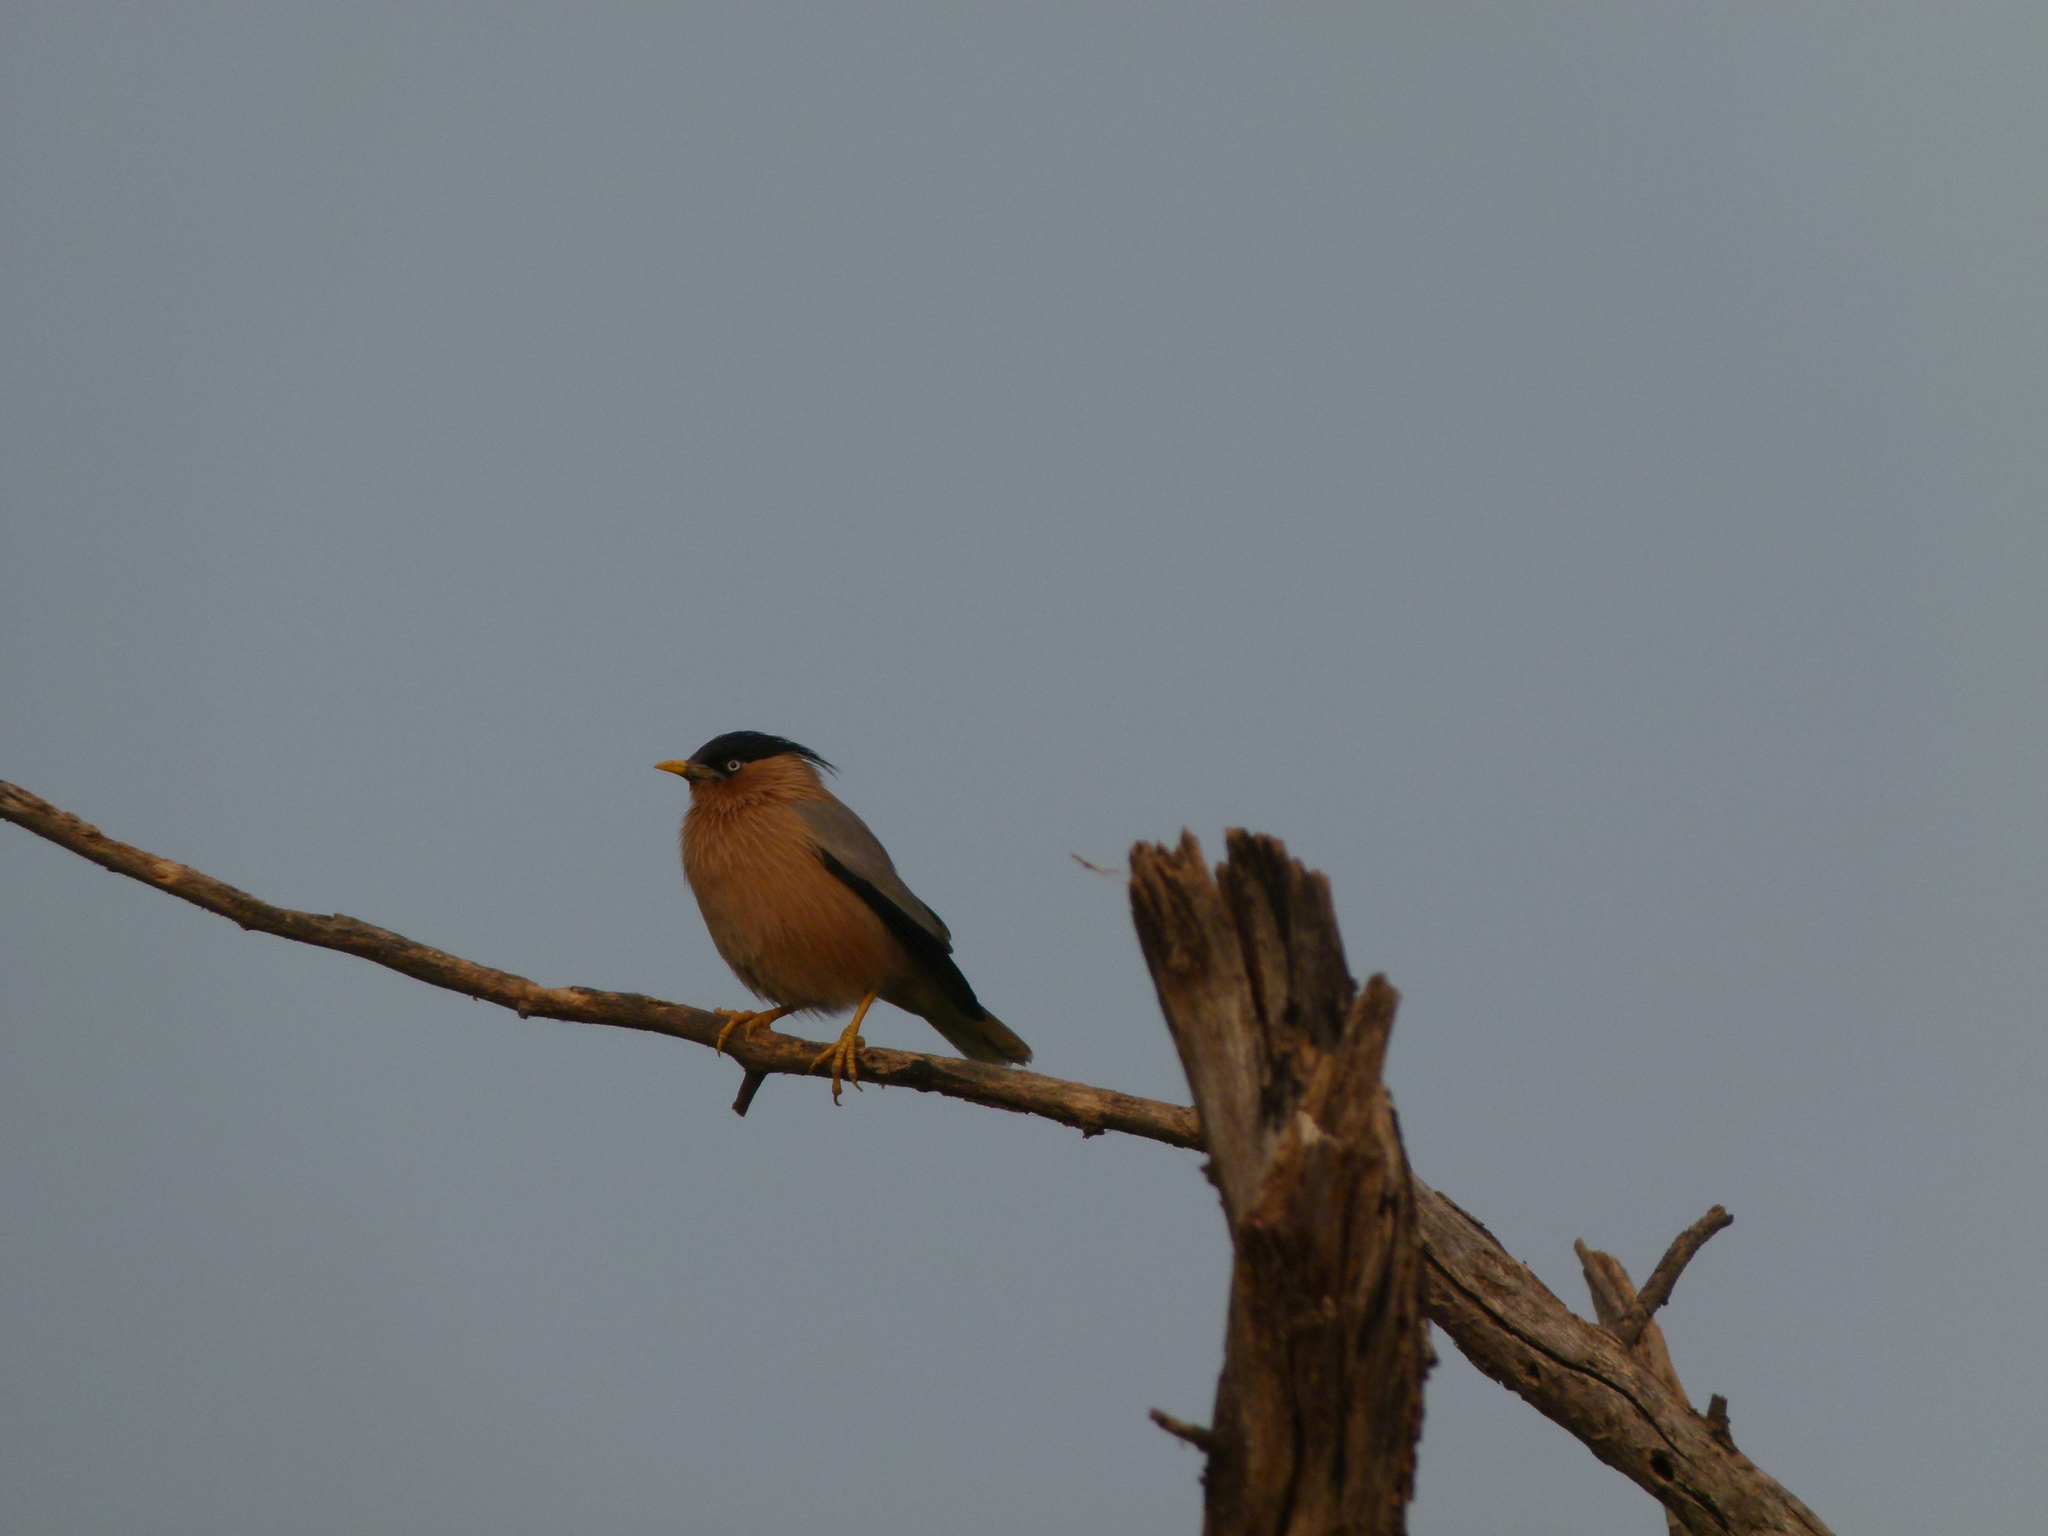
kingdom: Animalia
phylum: Chordata
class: Aves
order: Passeriformes
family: Sturnidae
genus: Sturnia
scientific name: Sturnia pagodarum
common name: Brahminy starling
